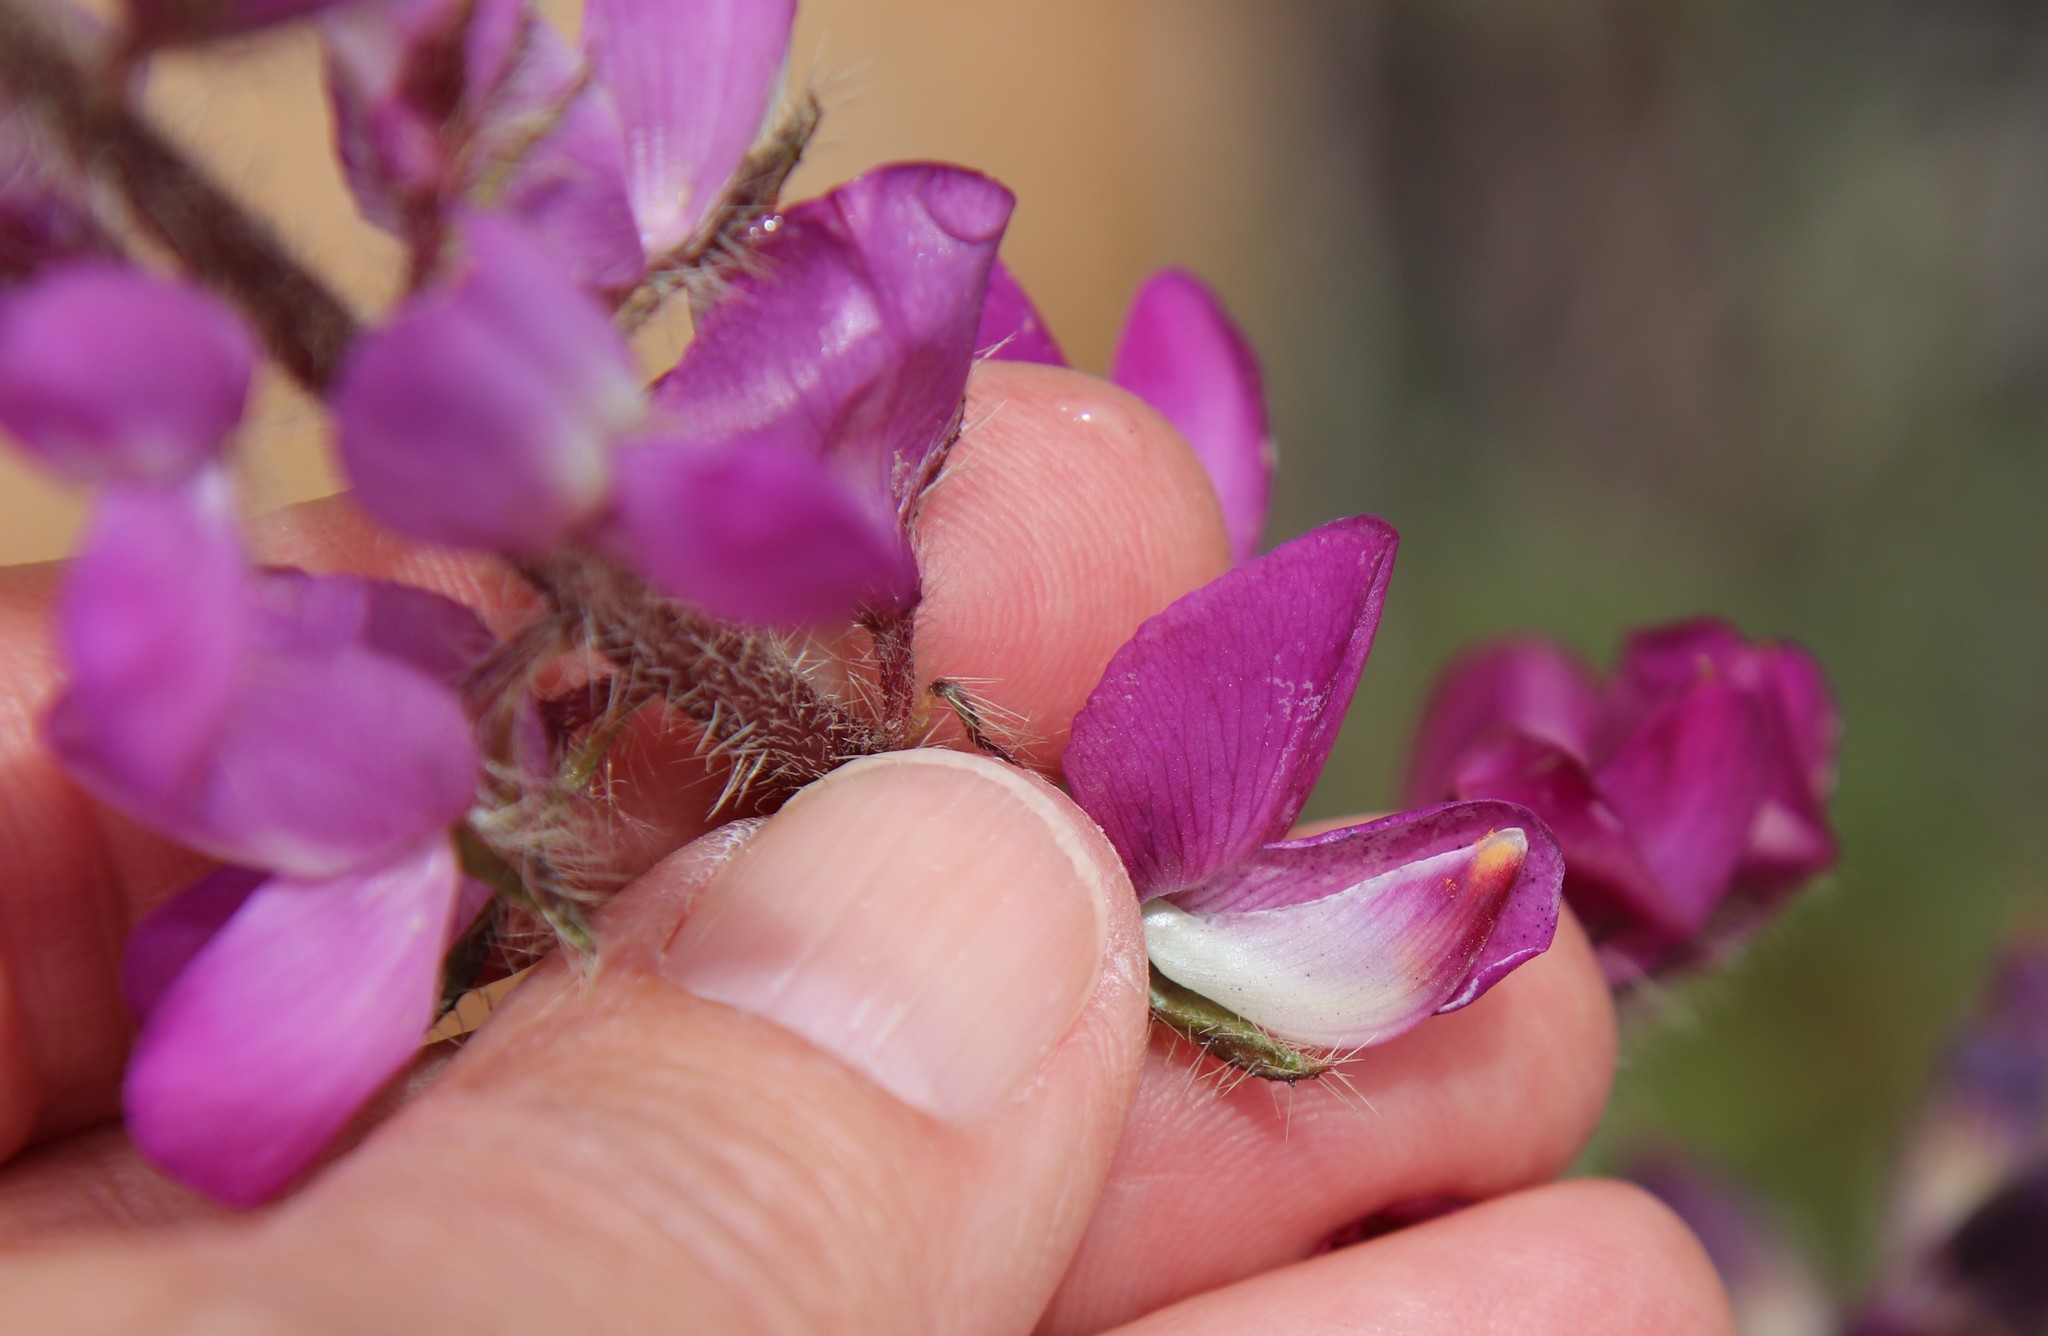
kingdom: Plantae
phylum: Tracheophyta
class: Magnoliopsida
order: Fabales
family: Fabaceae
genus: Lupinus
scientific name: Lupinus hirsutissimus
